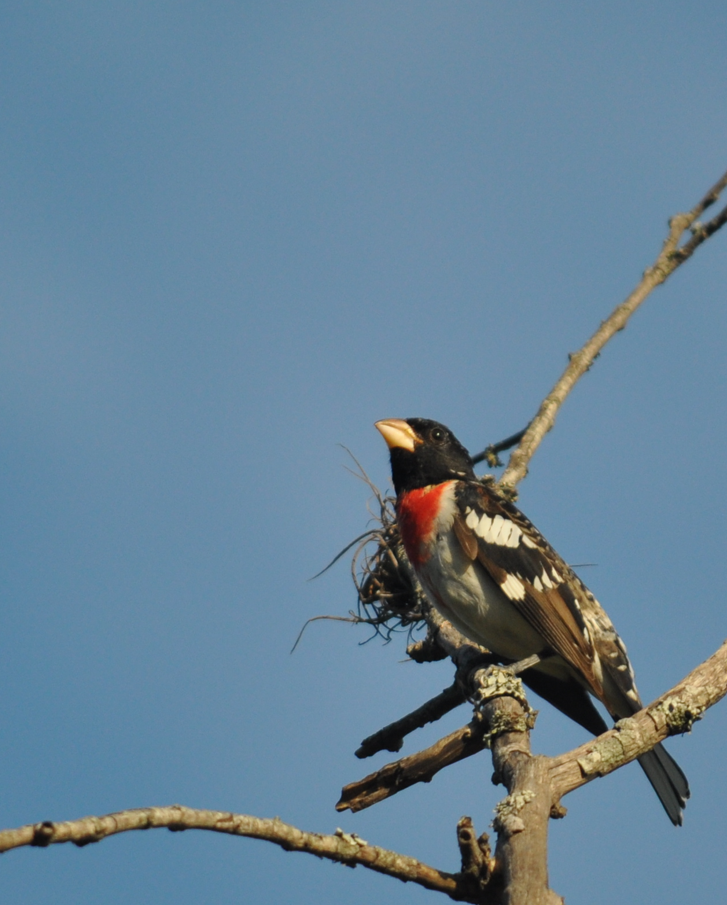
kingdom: Animalia
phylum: Chordata
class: Aves
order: Passeriformes
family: Cardinalidae
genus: Pheucticus
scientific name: Pheucticus ludovicianus
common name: Rose-breasted grosbeak
